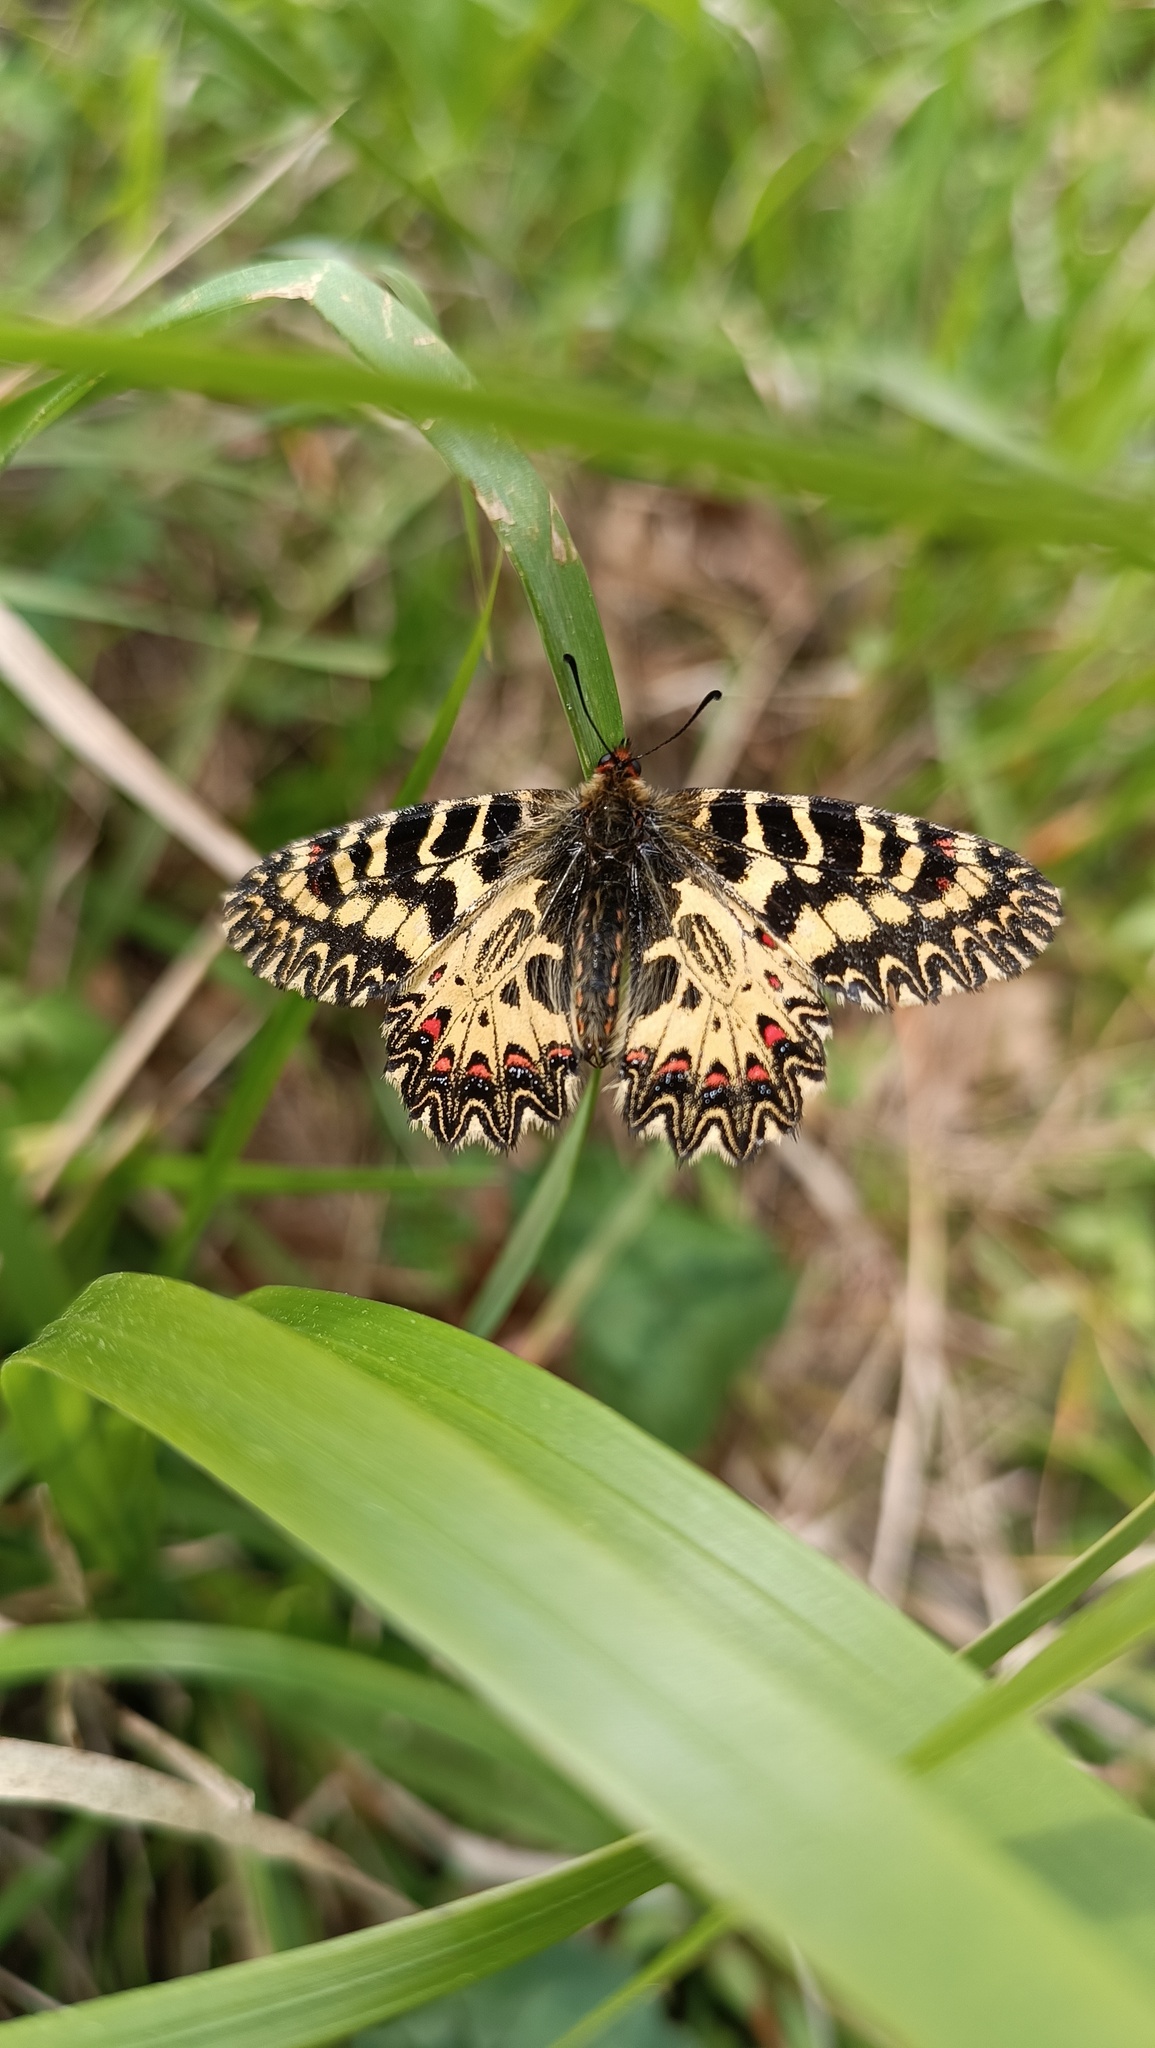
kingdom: Animalia
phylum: Arthropoda
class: Insecta
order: Lepidoptera
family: Papilionidae
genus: Zerynthia
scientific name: Zerynthia cassandra
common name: Italian festoon
